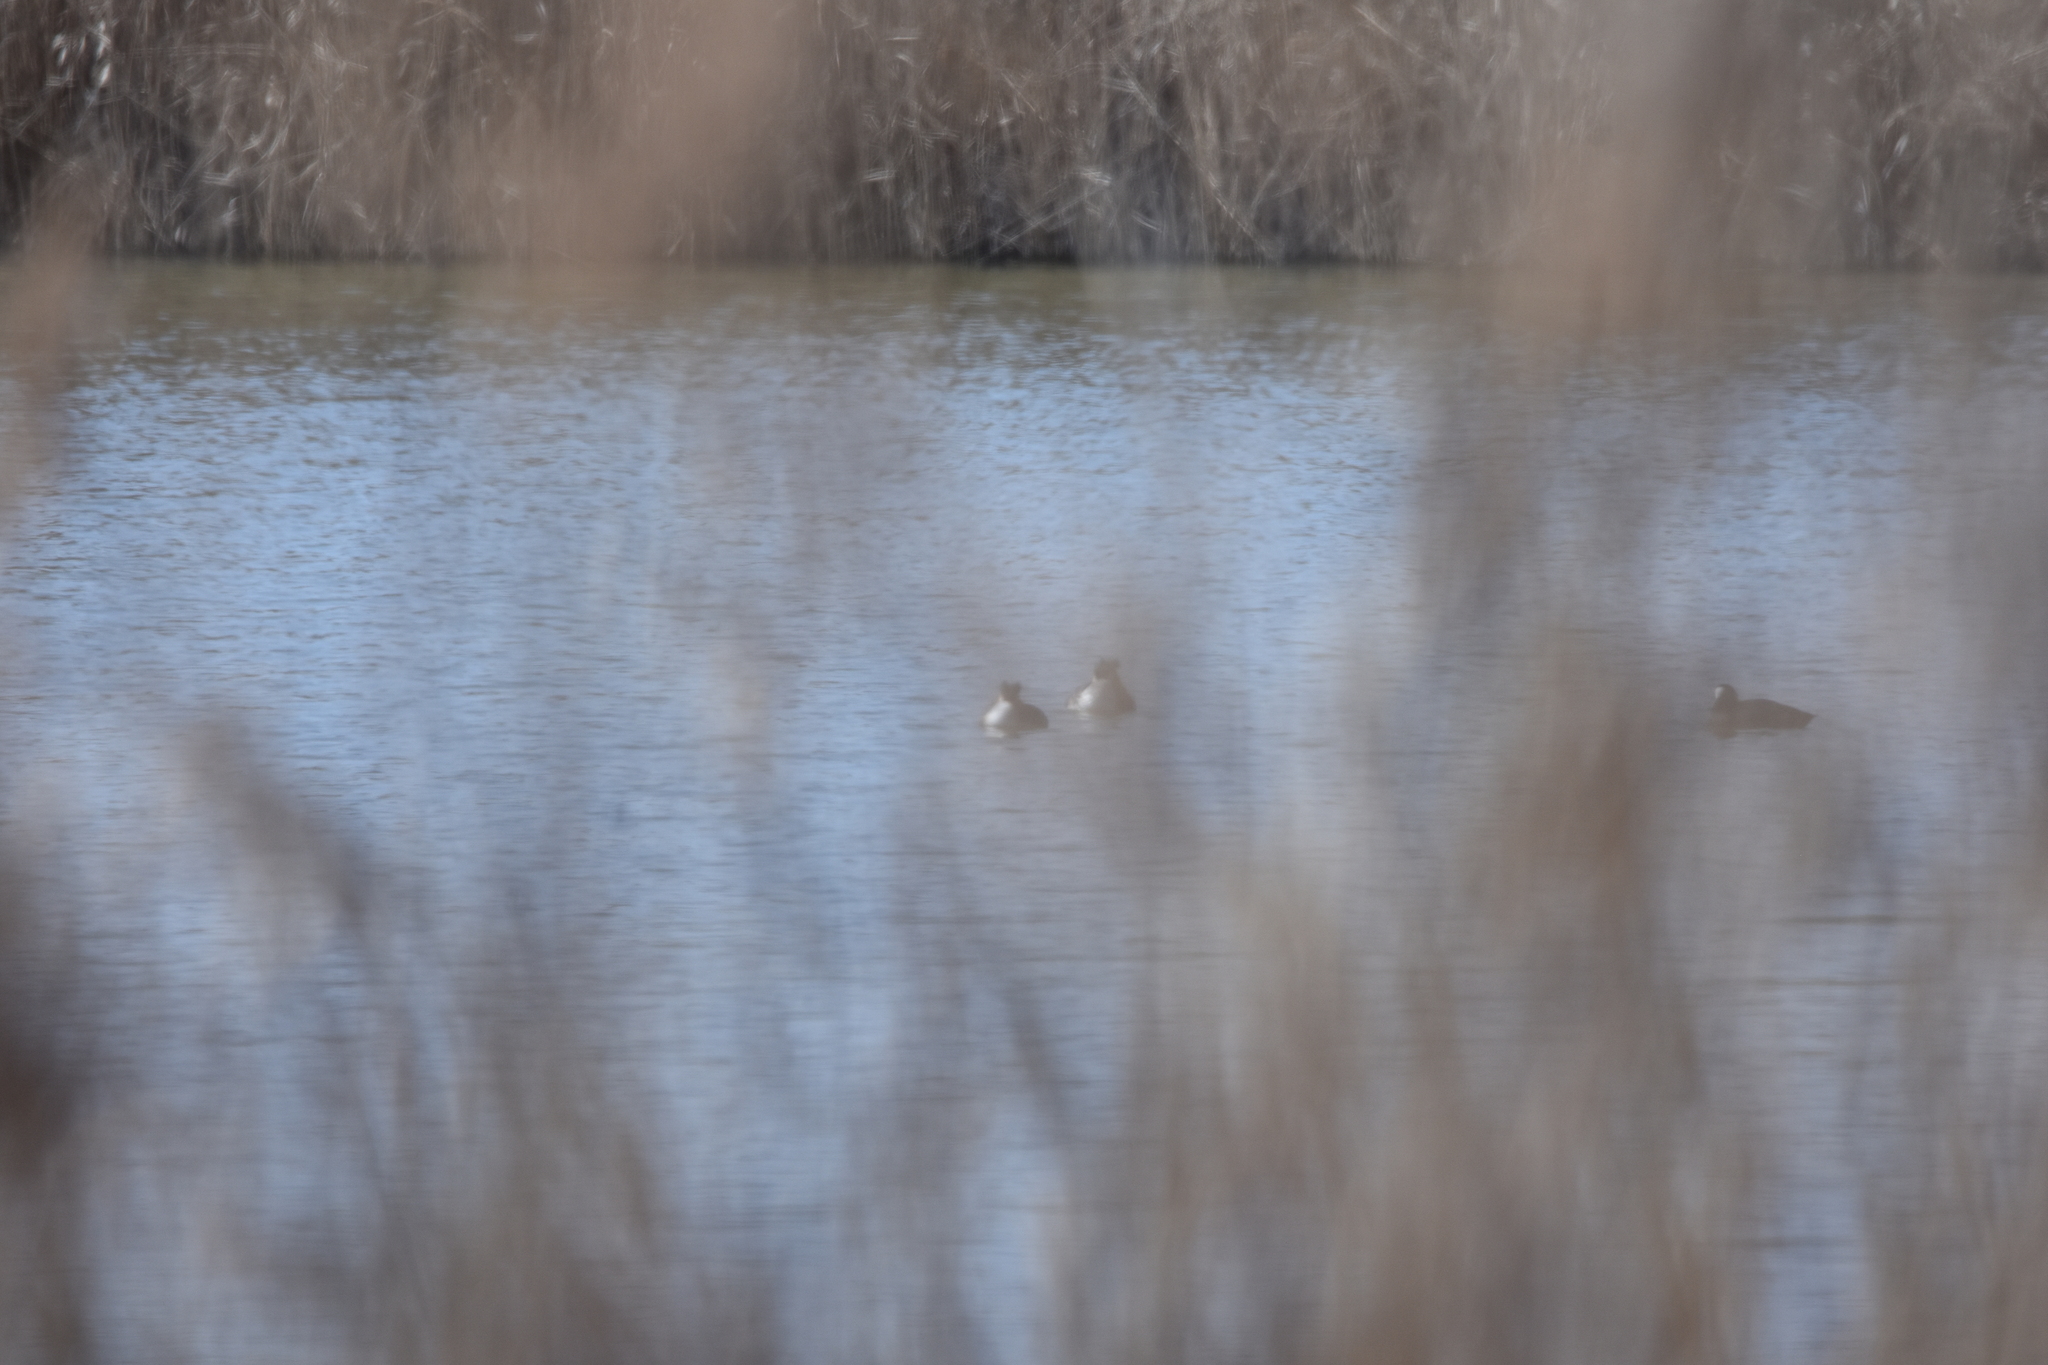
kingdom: Animalia
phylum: Chordata
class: Aves
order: Podicipediformes
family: Podicipedidae
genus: Podiceps
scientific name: Podiceps cristatus
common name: Great crested grebe
